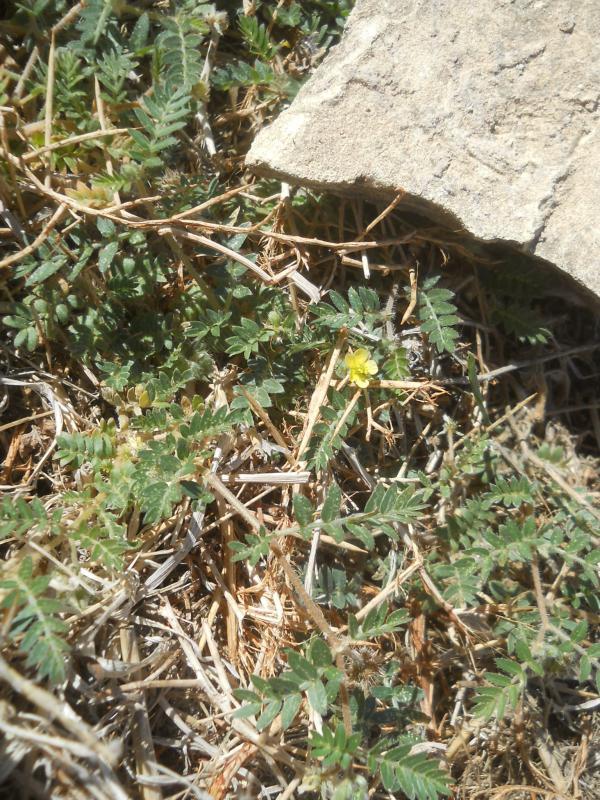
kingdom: Plantae
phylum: Tracheophyta
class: Magnoliopsida
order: Zygophyllales
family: Zygophyllaceae
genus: Tribulus
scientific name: Tribulus terrestris
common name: Puncturevine
